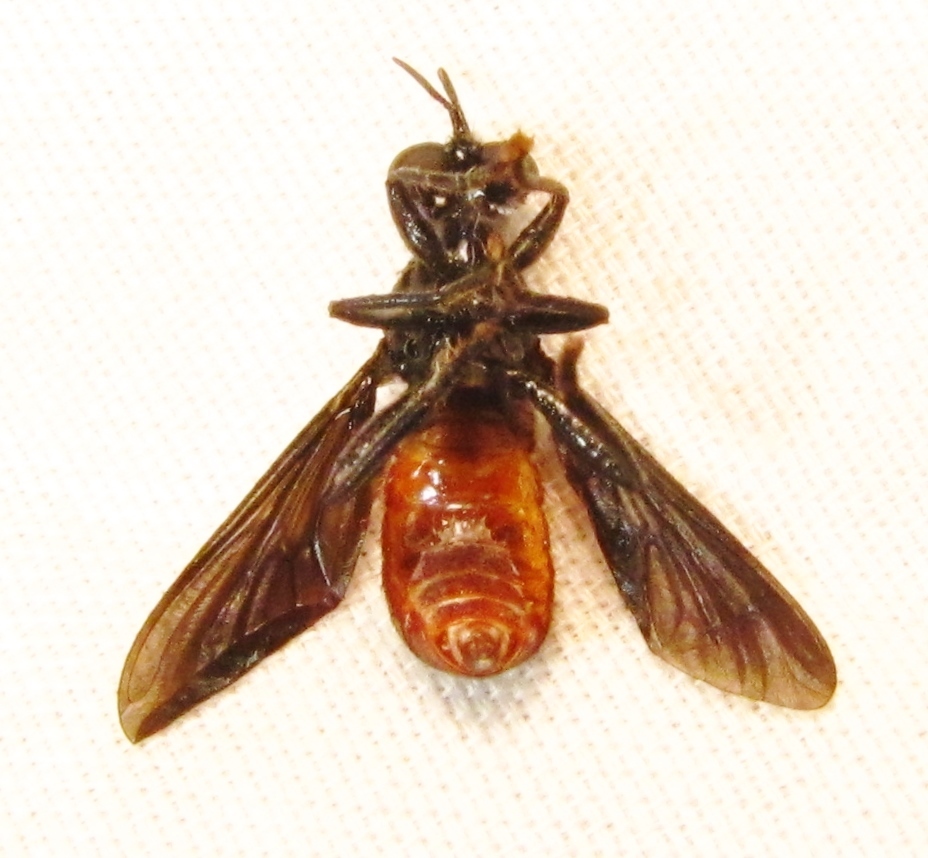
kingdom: Animalia
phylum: Arthropoda
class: Insecta
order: Diptera
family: Asilidae
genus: Lampria
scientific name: Lampria bicolor
